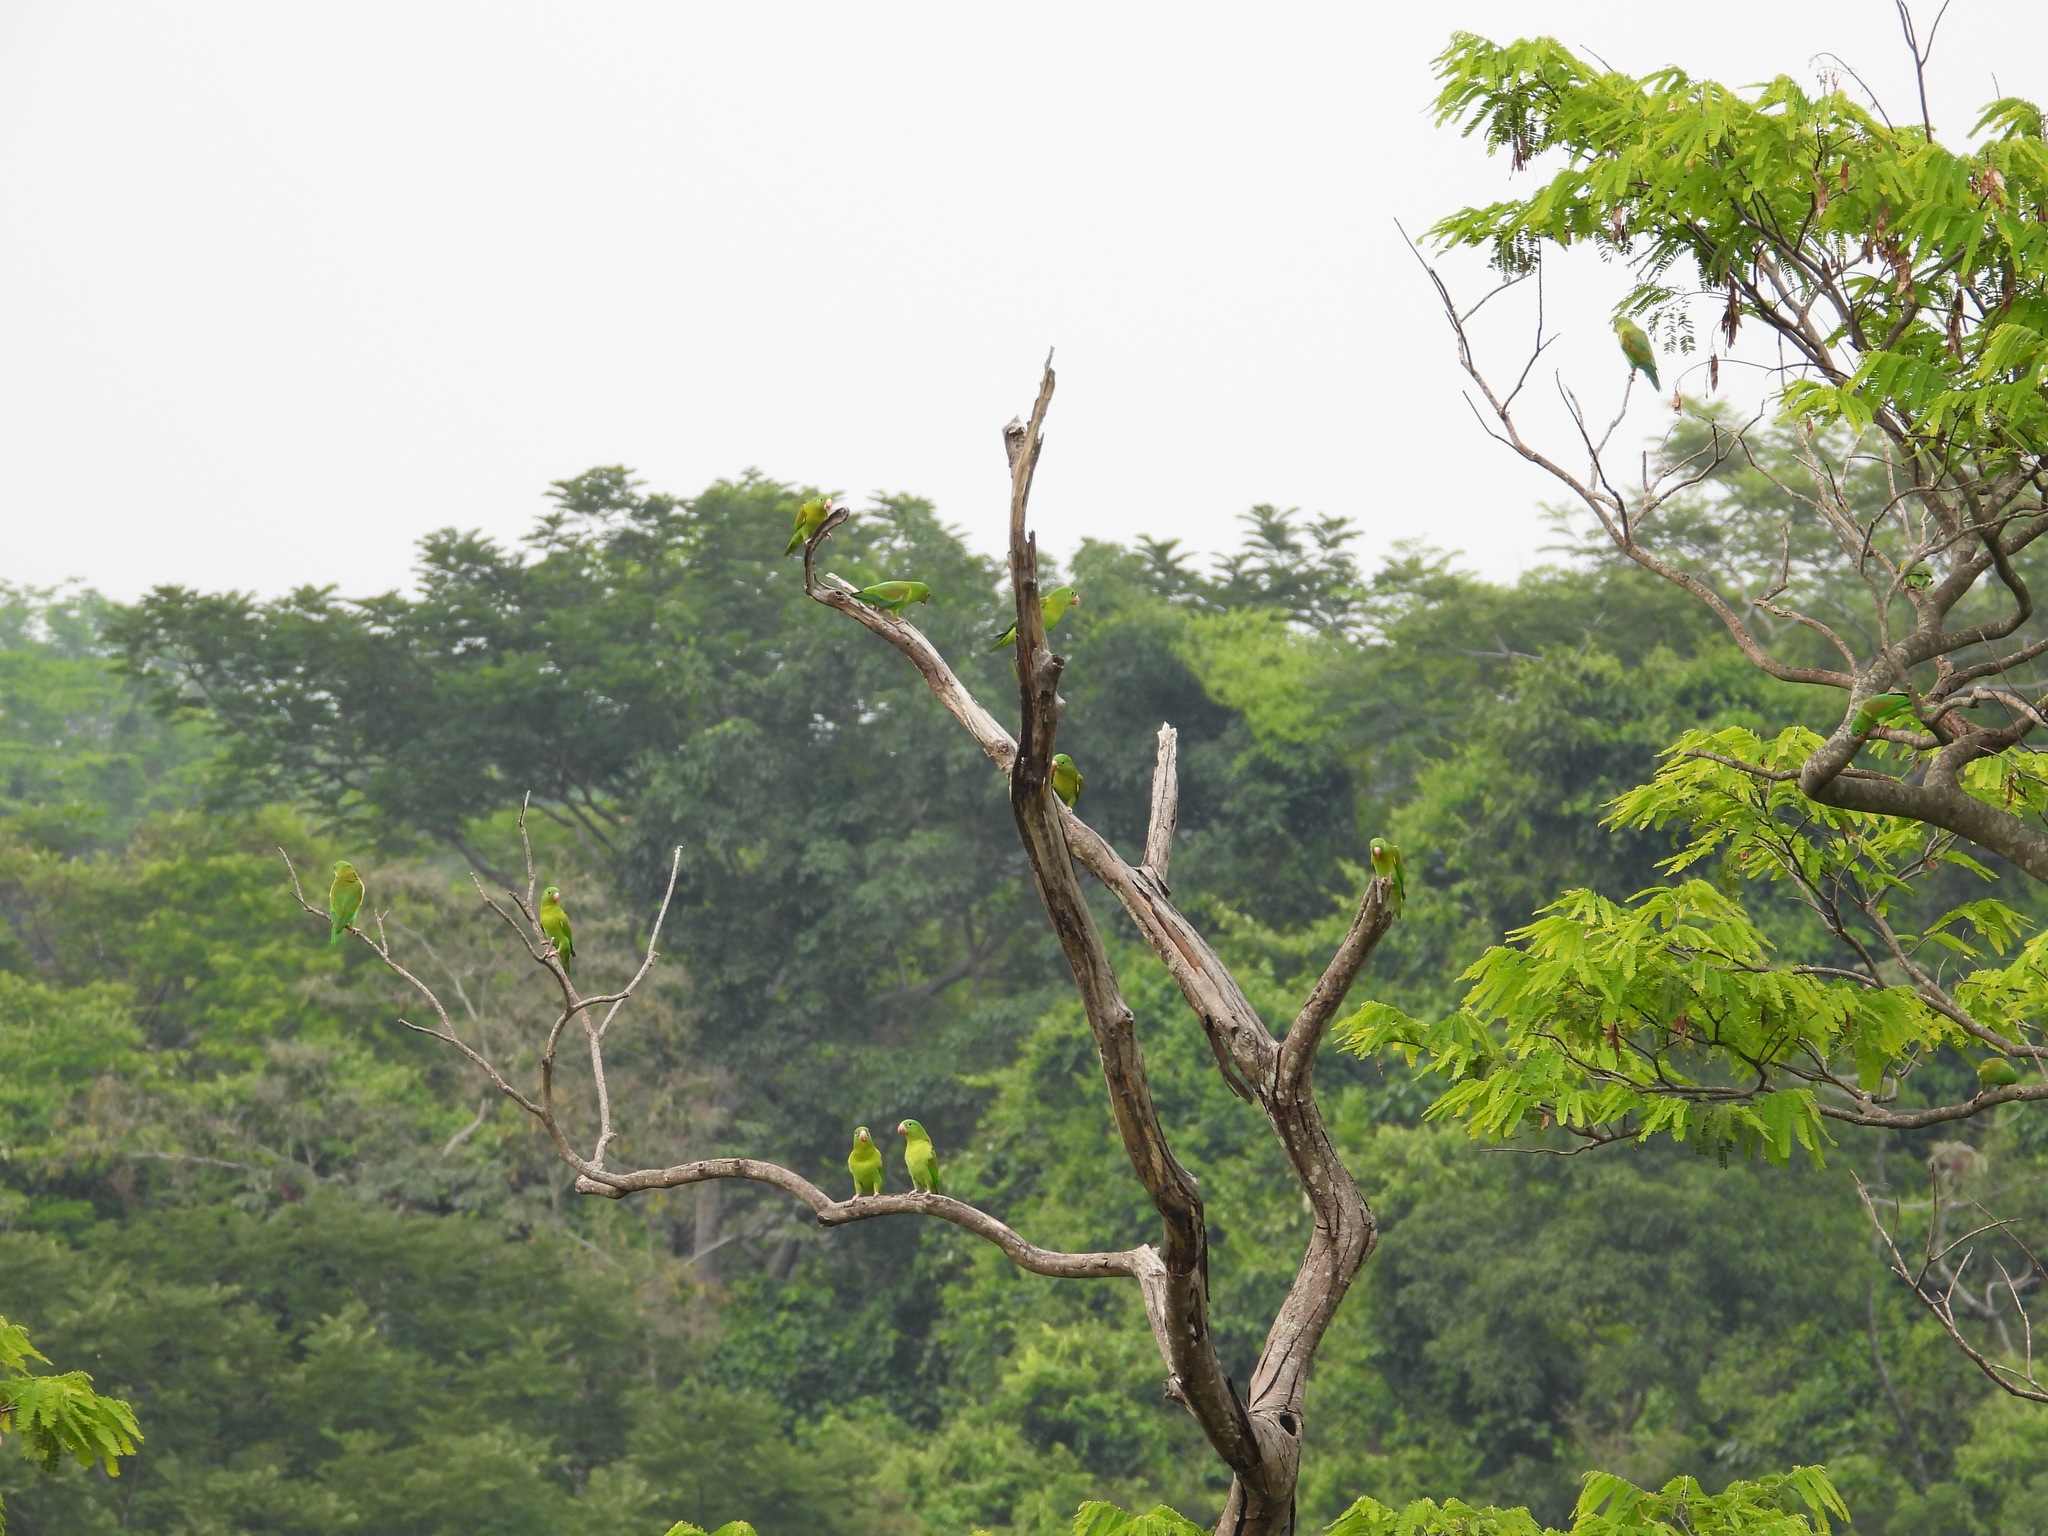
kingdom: Animalia
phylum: Chordata
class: Aves
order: Psittaciformes
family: Psittacidae
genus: Brotogeris
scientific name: Brotogeris jugularis
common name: Orange-chinned parakeet
